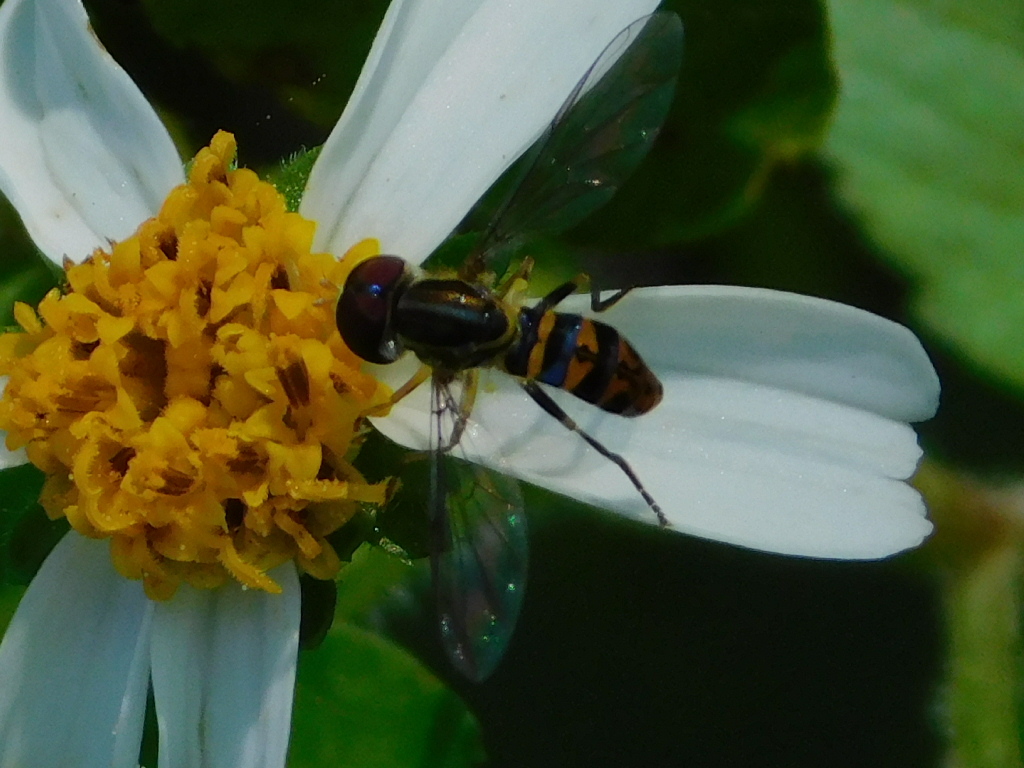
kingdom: Animalia
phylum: Arthropoda
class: Insecta
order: Diptera
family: Syrphidae
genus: Toxomerus
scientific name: Toxomerus parvulus
